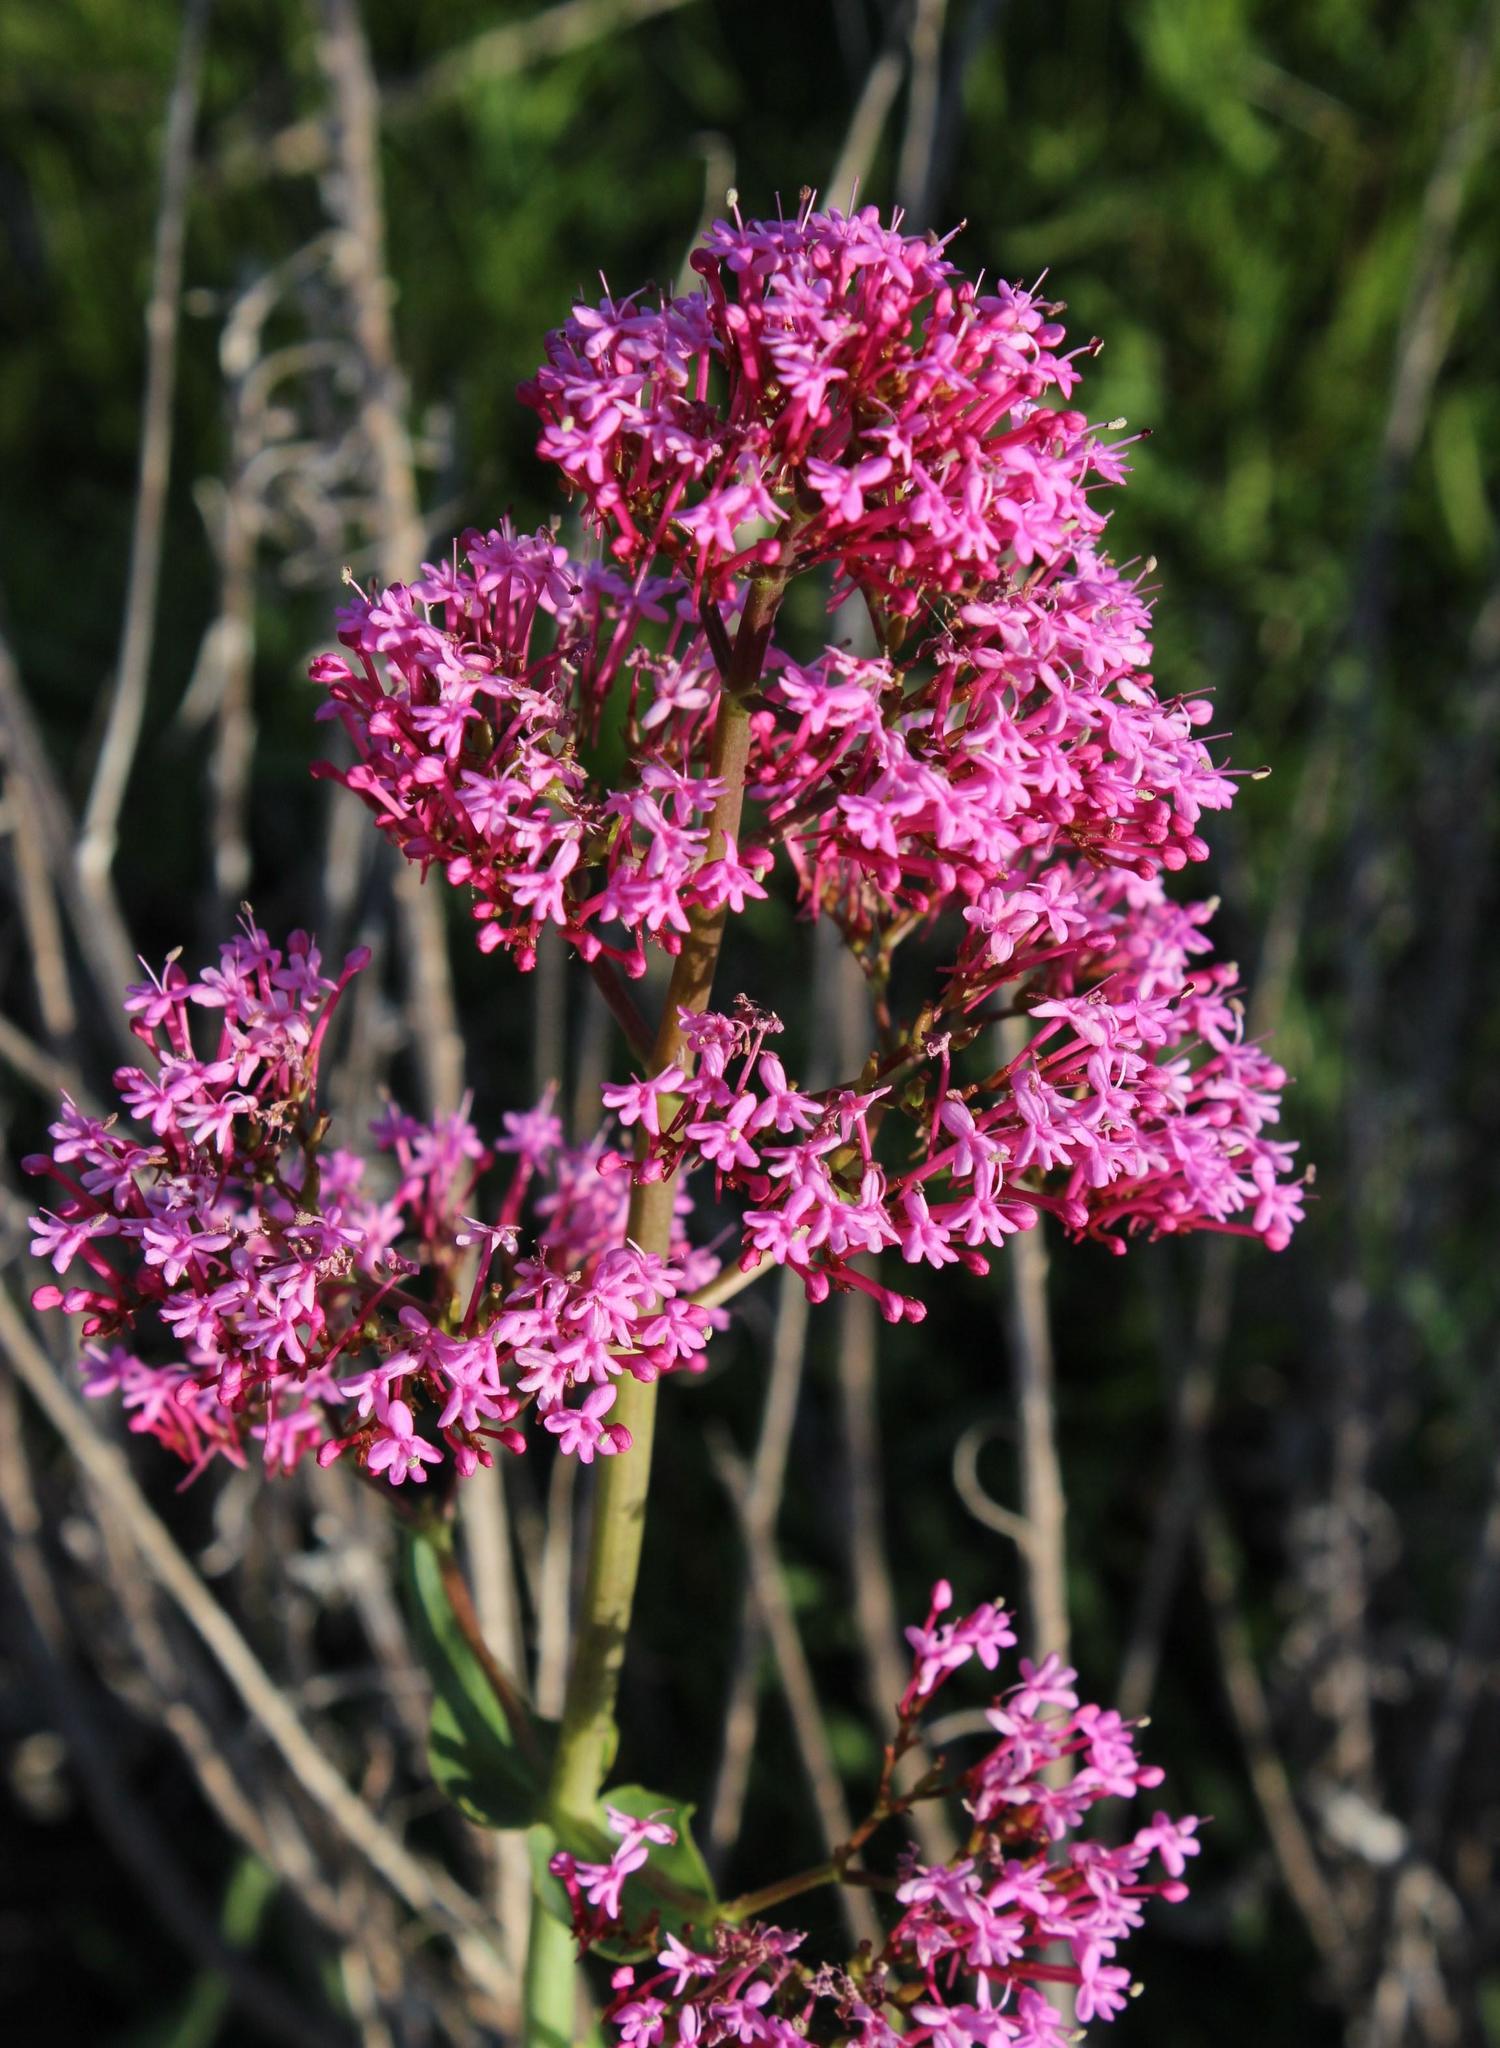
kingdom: Plantae
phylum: Tracheophyta
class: Magnoliopsida
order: Dipsacales
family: Caprifoliaceae
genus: Centranthus
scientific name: Centranthus ruber
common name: Red valerian
